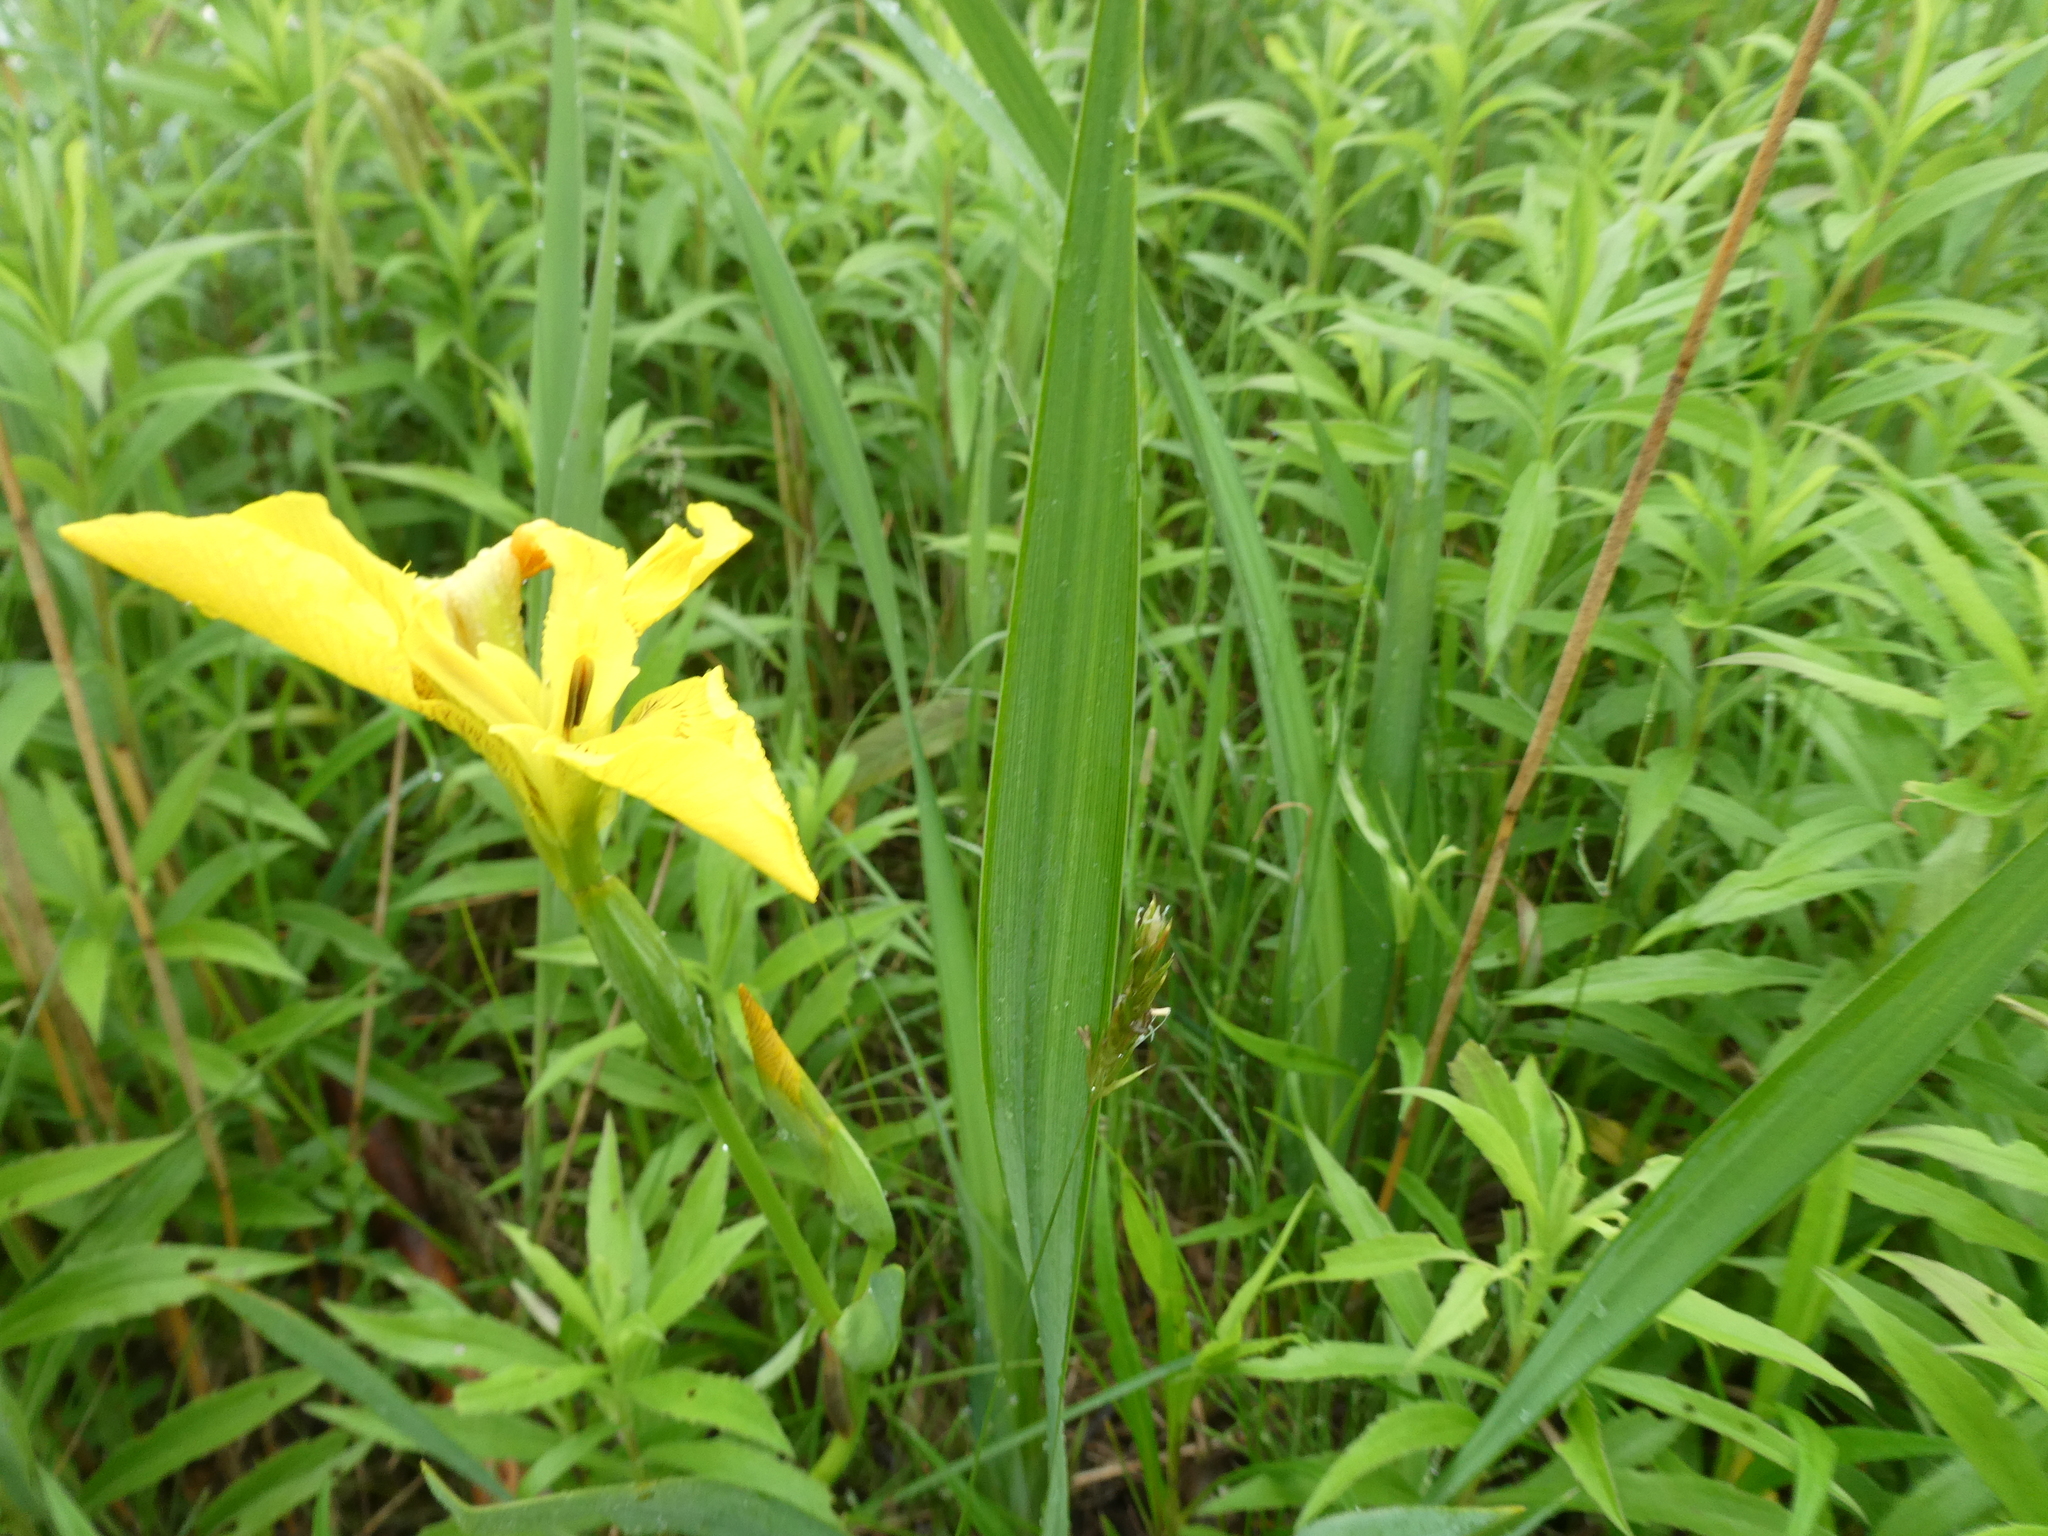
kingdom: Plantae
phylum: Tracheophyta
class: Liliopsida
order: Asparagales
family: Iridaceae
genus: Iris
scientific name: Iris pseudacorus
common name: Yellow flag
